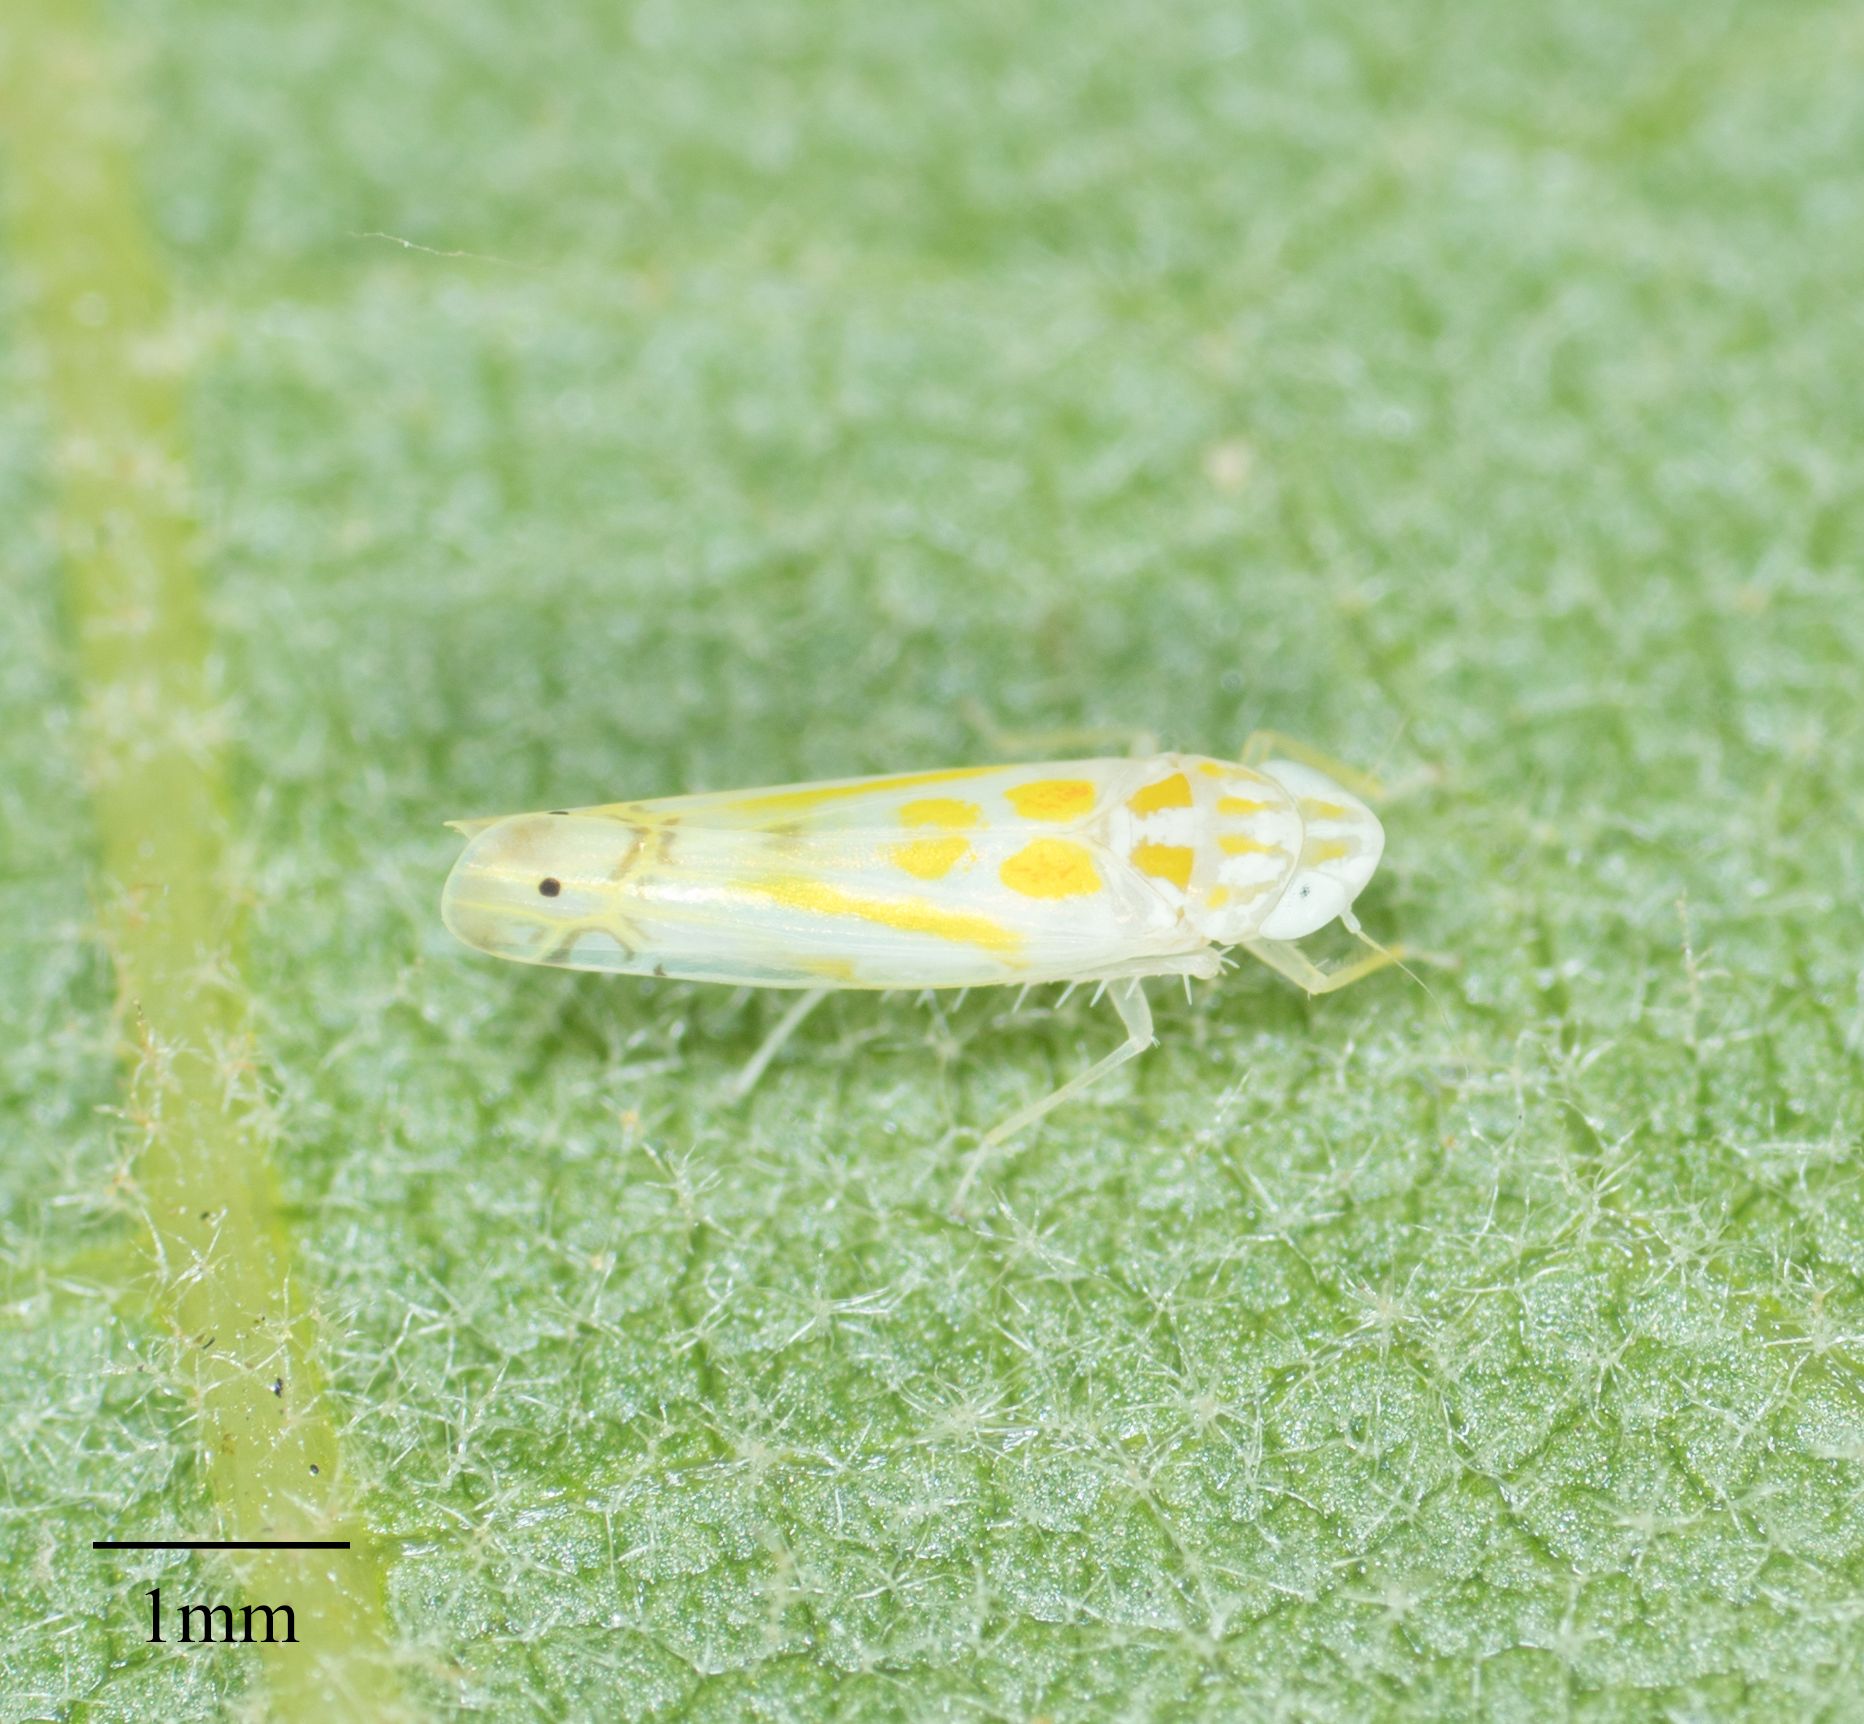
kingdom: Animalia
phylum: Arthropoda
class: Insecta
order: Hemiptera
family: Cicadellidae
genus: Alconeura
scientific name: Alconeura quadrimaculata
